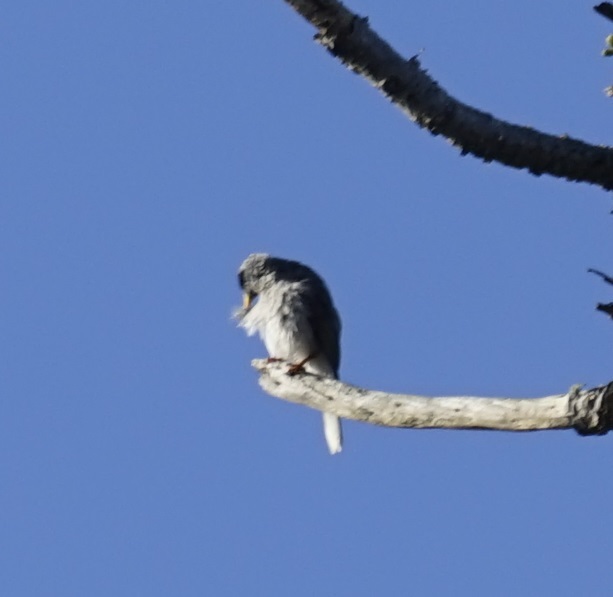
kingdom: Animalia
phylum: Chordata
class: Aves
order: Passeriformes
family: Meliphagidae
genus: Manorina
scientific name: Manorina melanocephala
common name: Noisy miner
